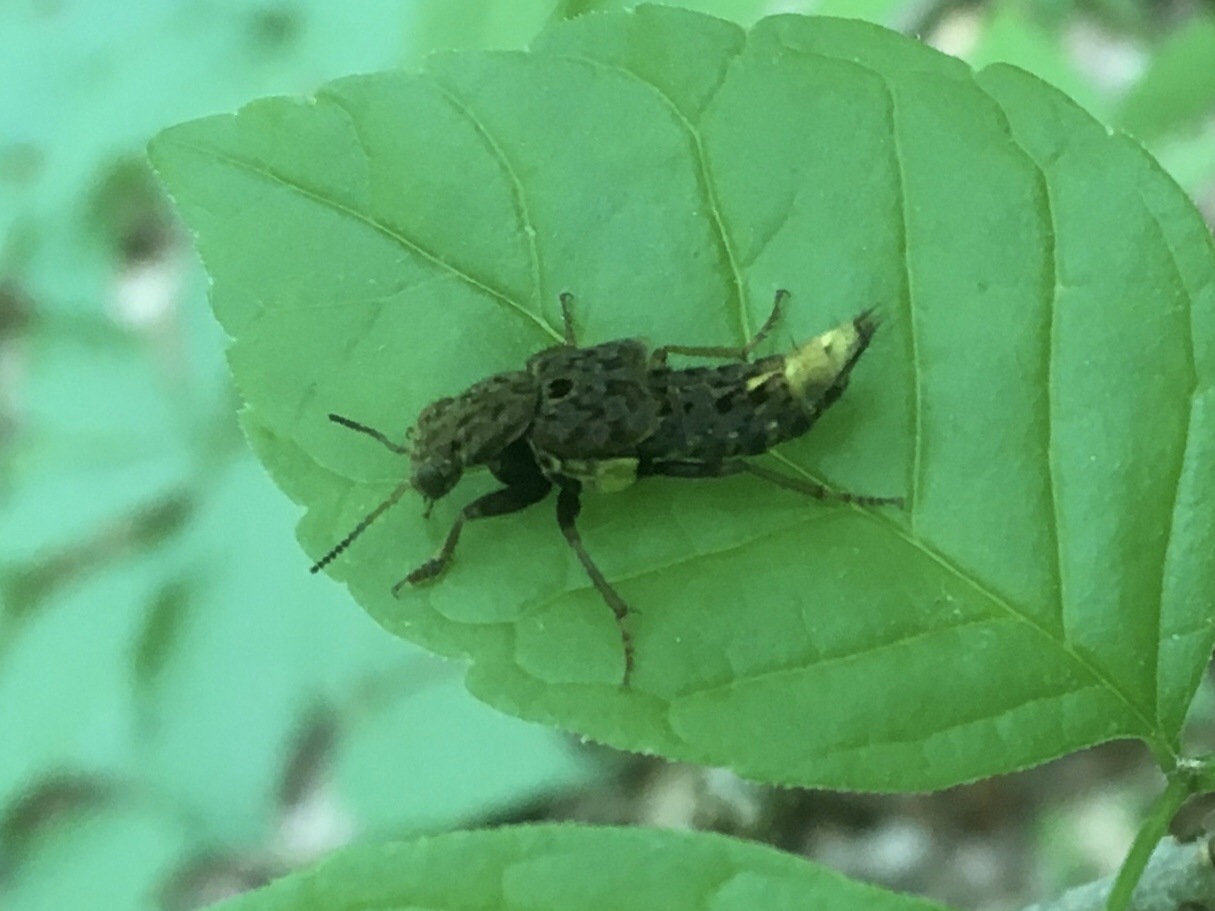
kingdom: Animalia
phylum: Arthropoda
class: Insecta
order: Coleoptera
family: Staphylinidae
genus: Ontholestes
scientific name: Ontholestes cingulatus
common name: Gold-and-brown rove beetle
